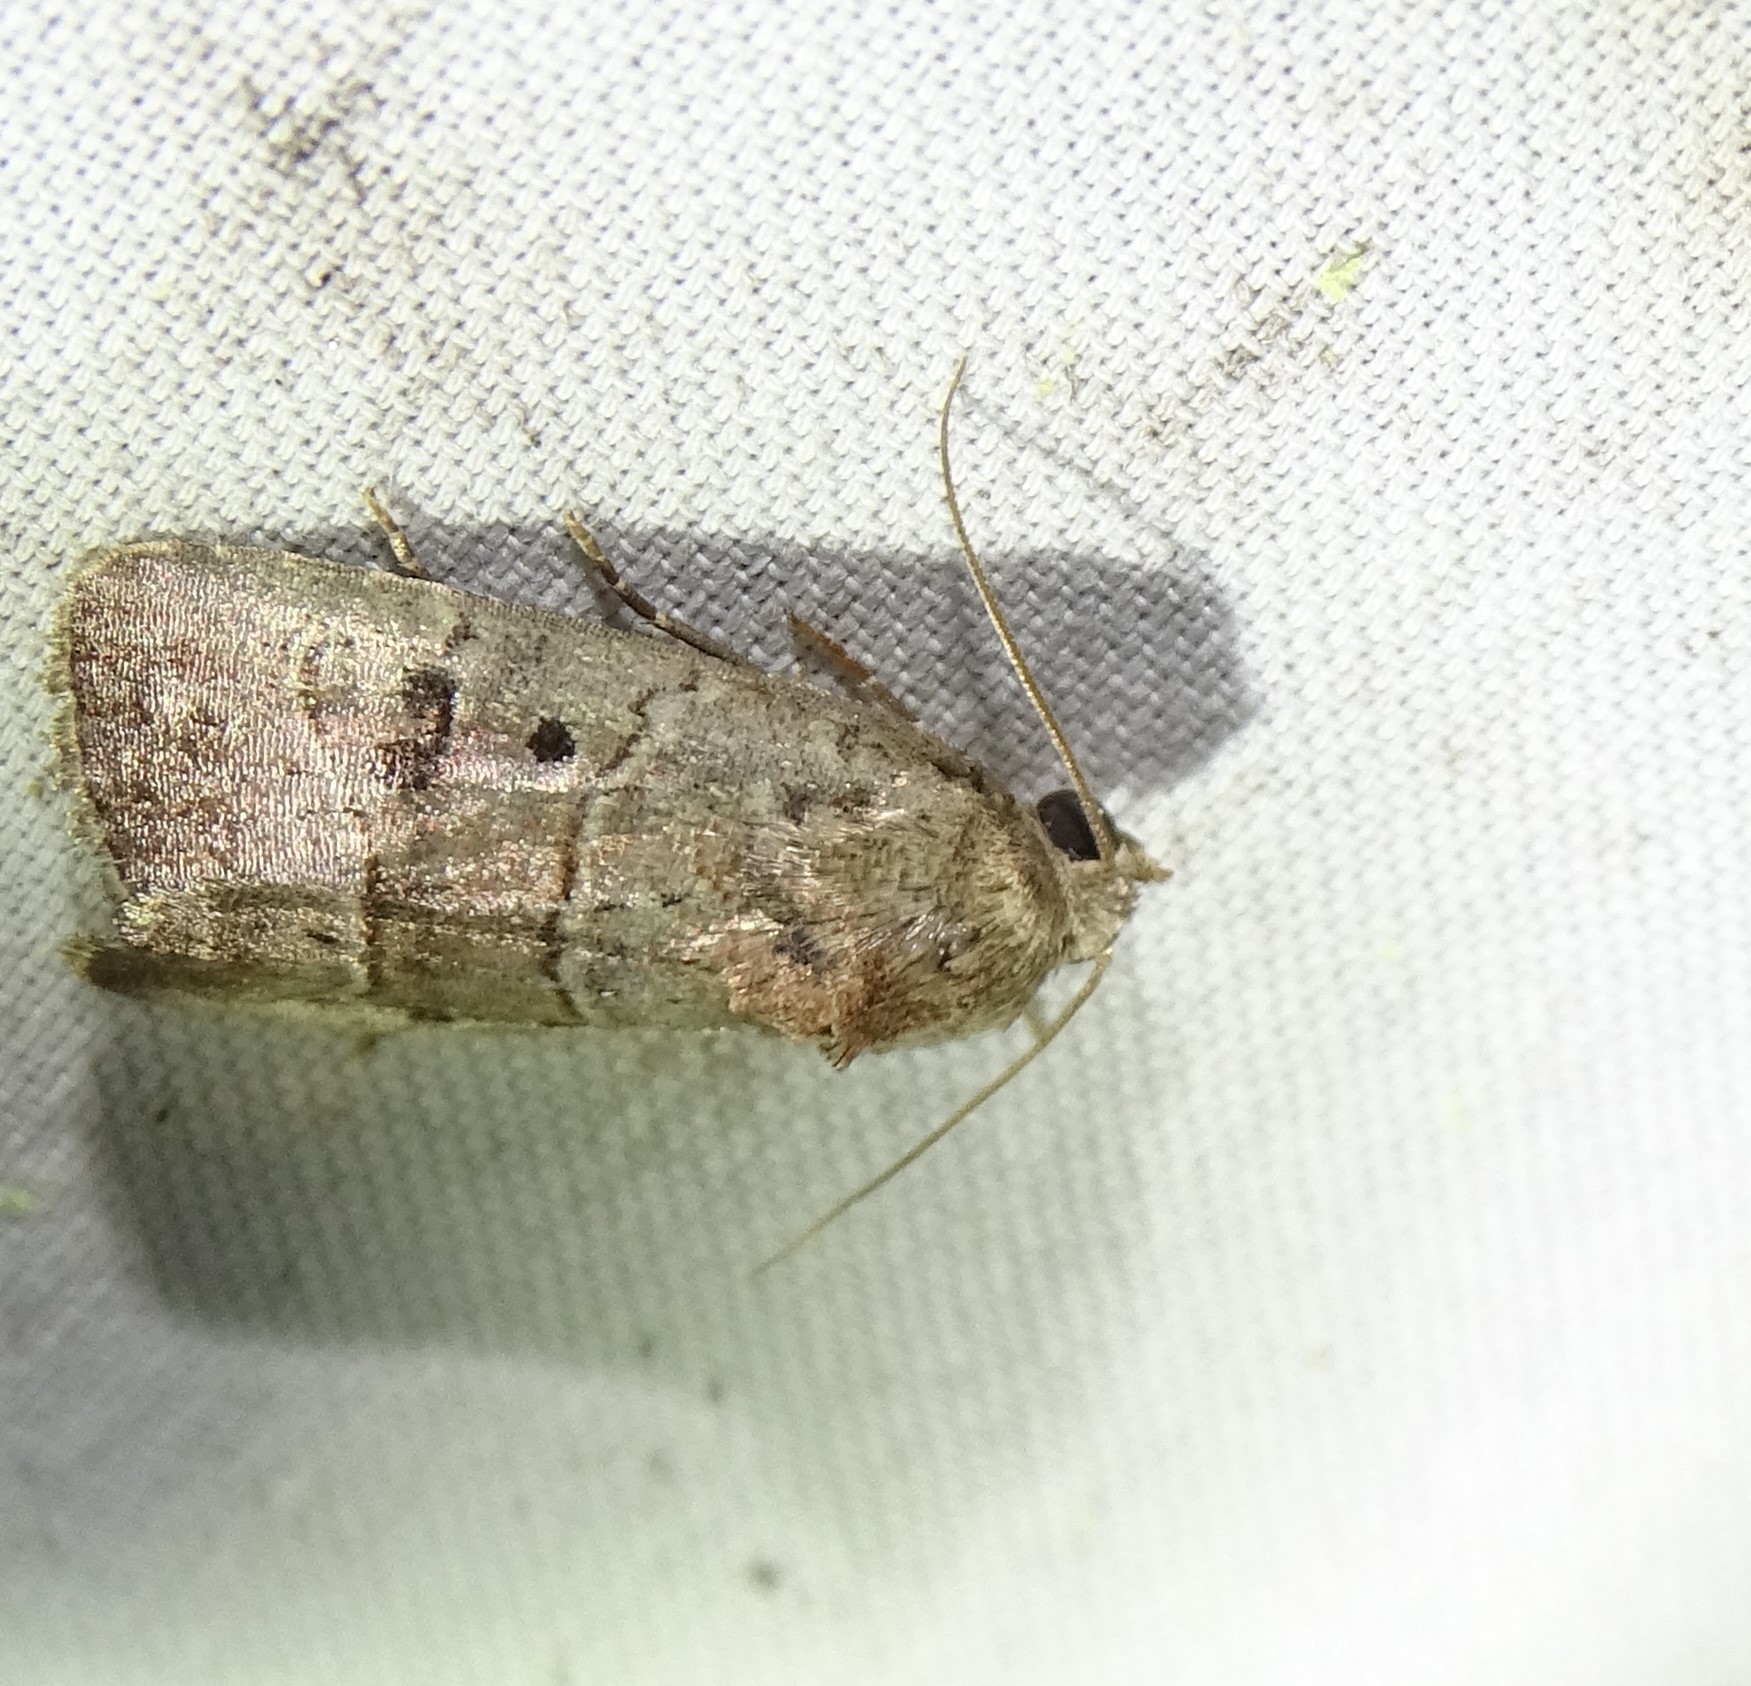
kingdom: Animalia
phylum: Arthropoda
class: Insecta
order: Lepidoptera
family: Noctuidae
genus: Elaphria
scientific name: Elaphria fuscimacula
